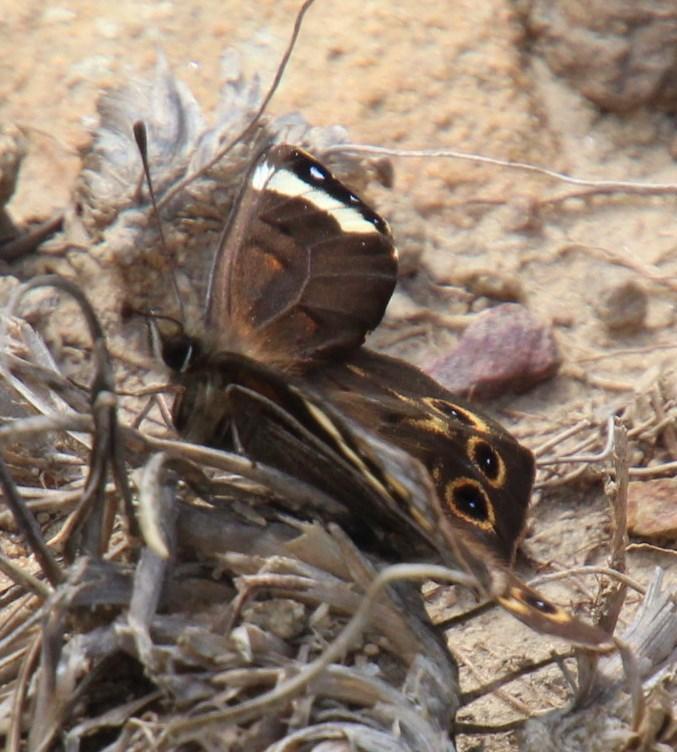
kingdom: Animalia
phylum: Arthropoda
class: Insecta
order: Lepidoptera
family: Nymphalidae
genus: Torynesis
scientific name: Torynesis magna
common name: Large widow
